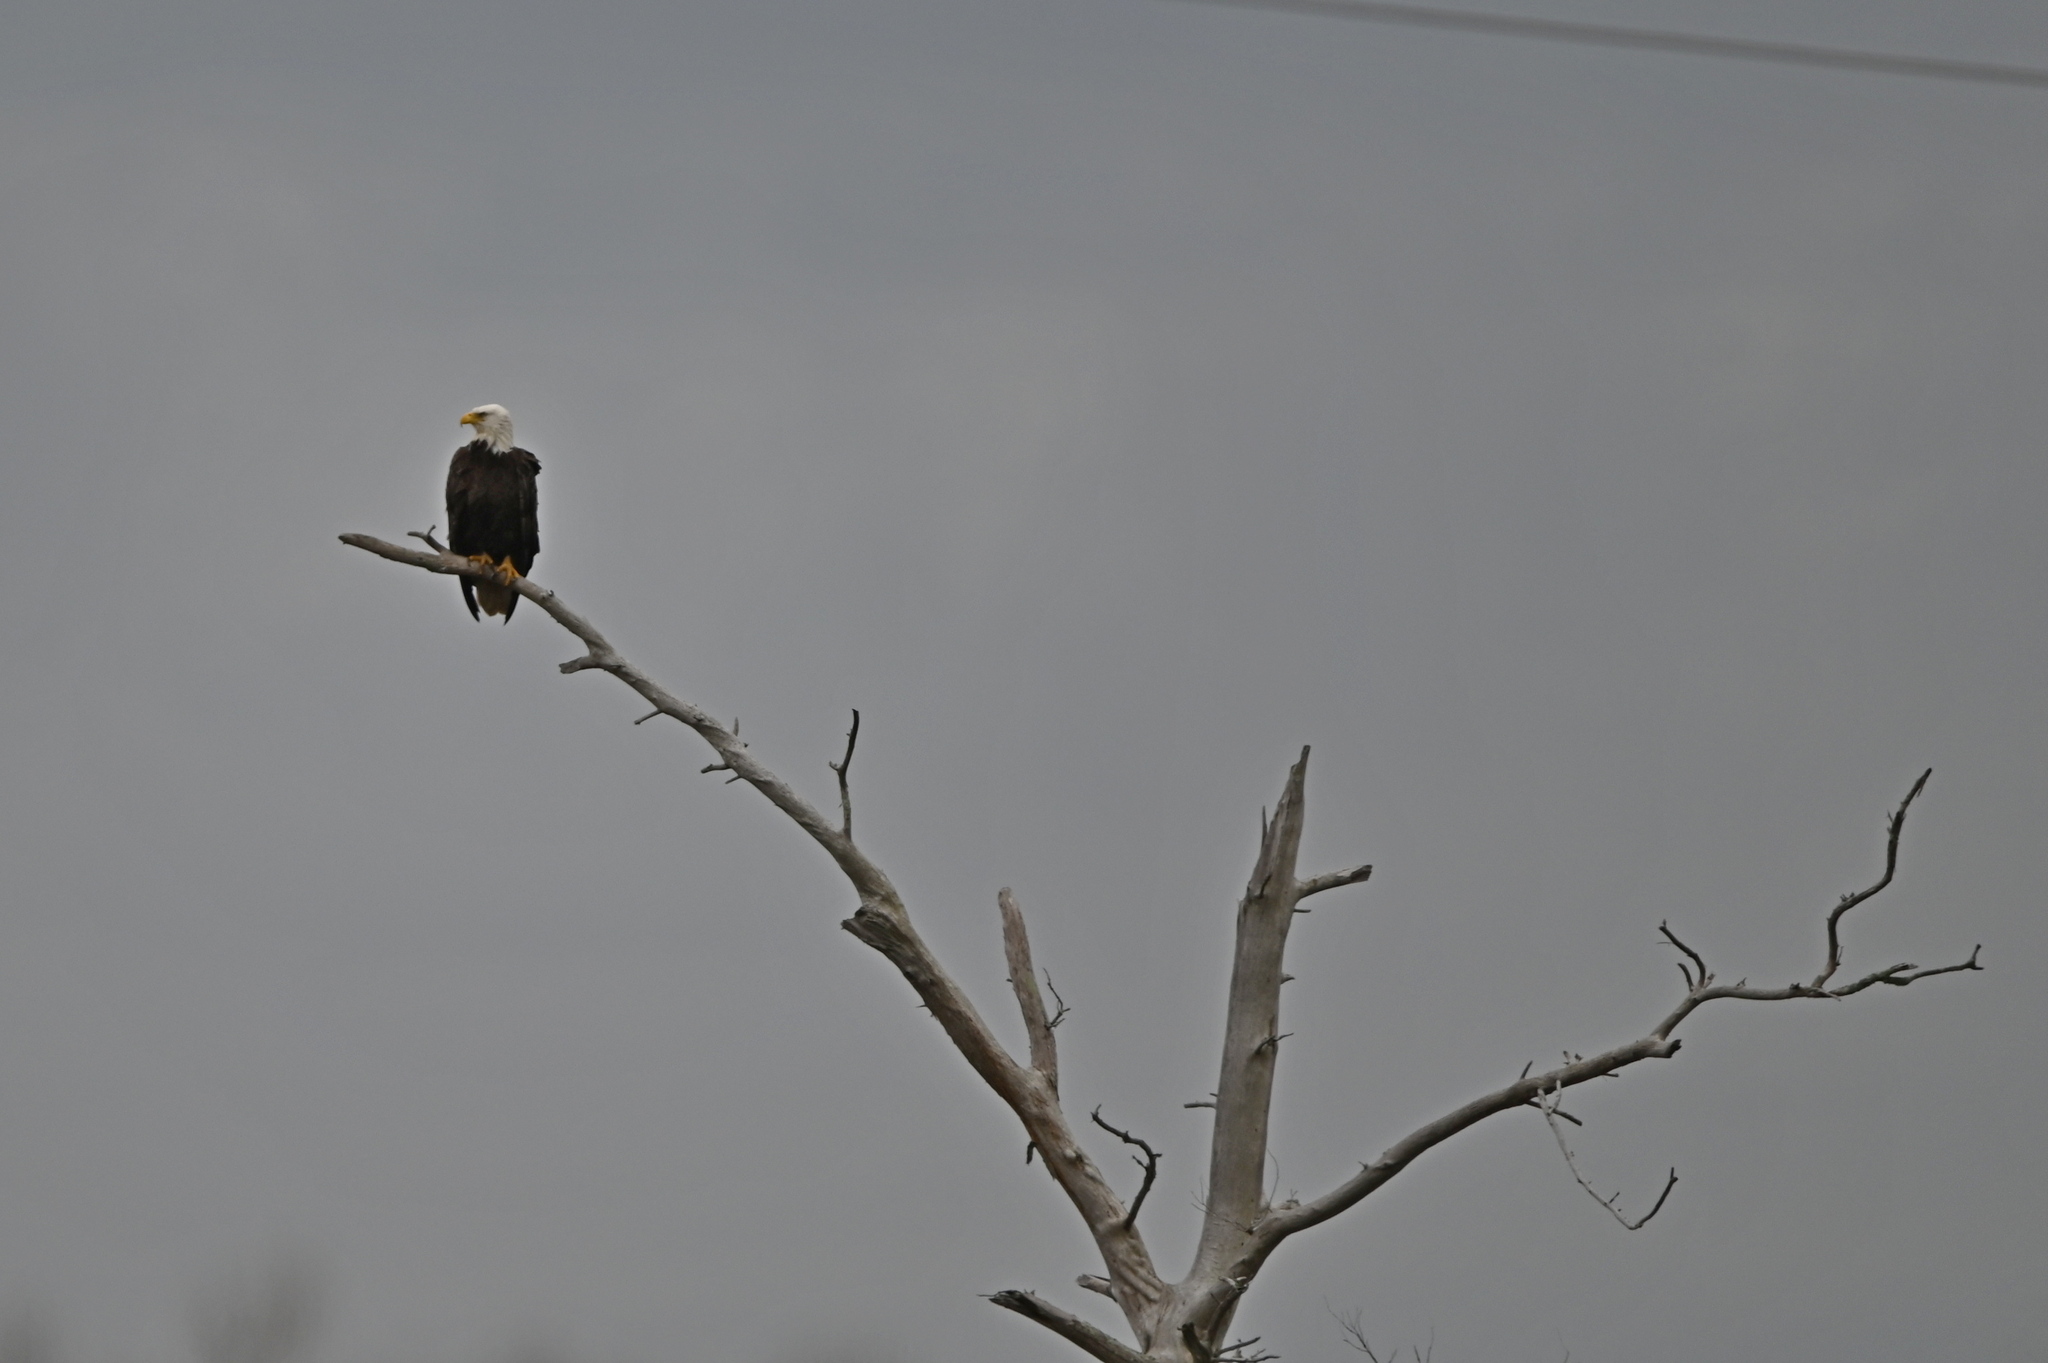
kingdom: Animalia
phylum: Chordata
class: Aves
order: Accipitriformes
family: Accipitridae
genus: Haliaeetus
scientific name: Haliaeetus leucocephalus
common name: Bald eagle
